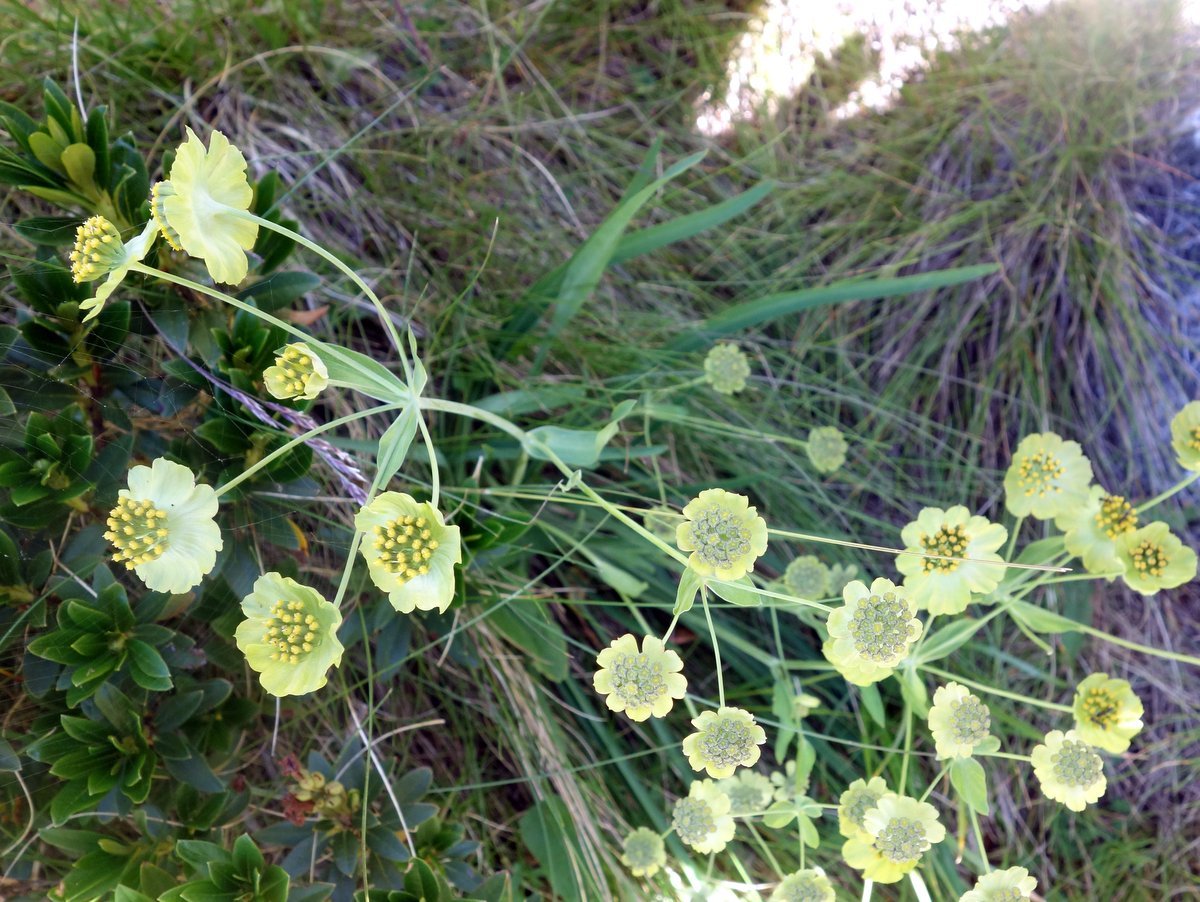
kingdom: Plantae
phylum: Tracheophyta
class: Magnoliopsida
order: Apiales
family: Apiaceae
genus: Bupleurum
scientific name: Bupleurum stellatum
